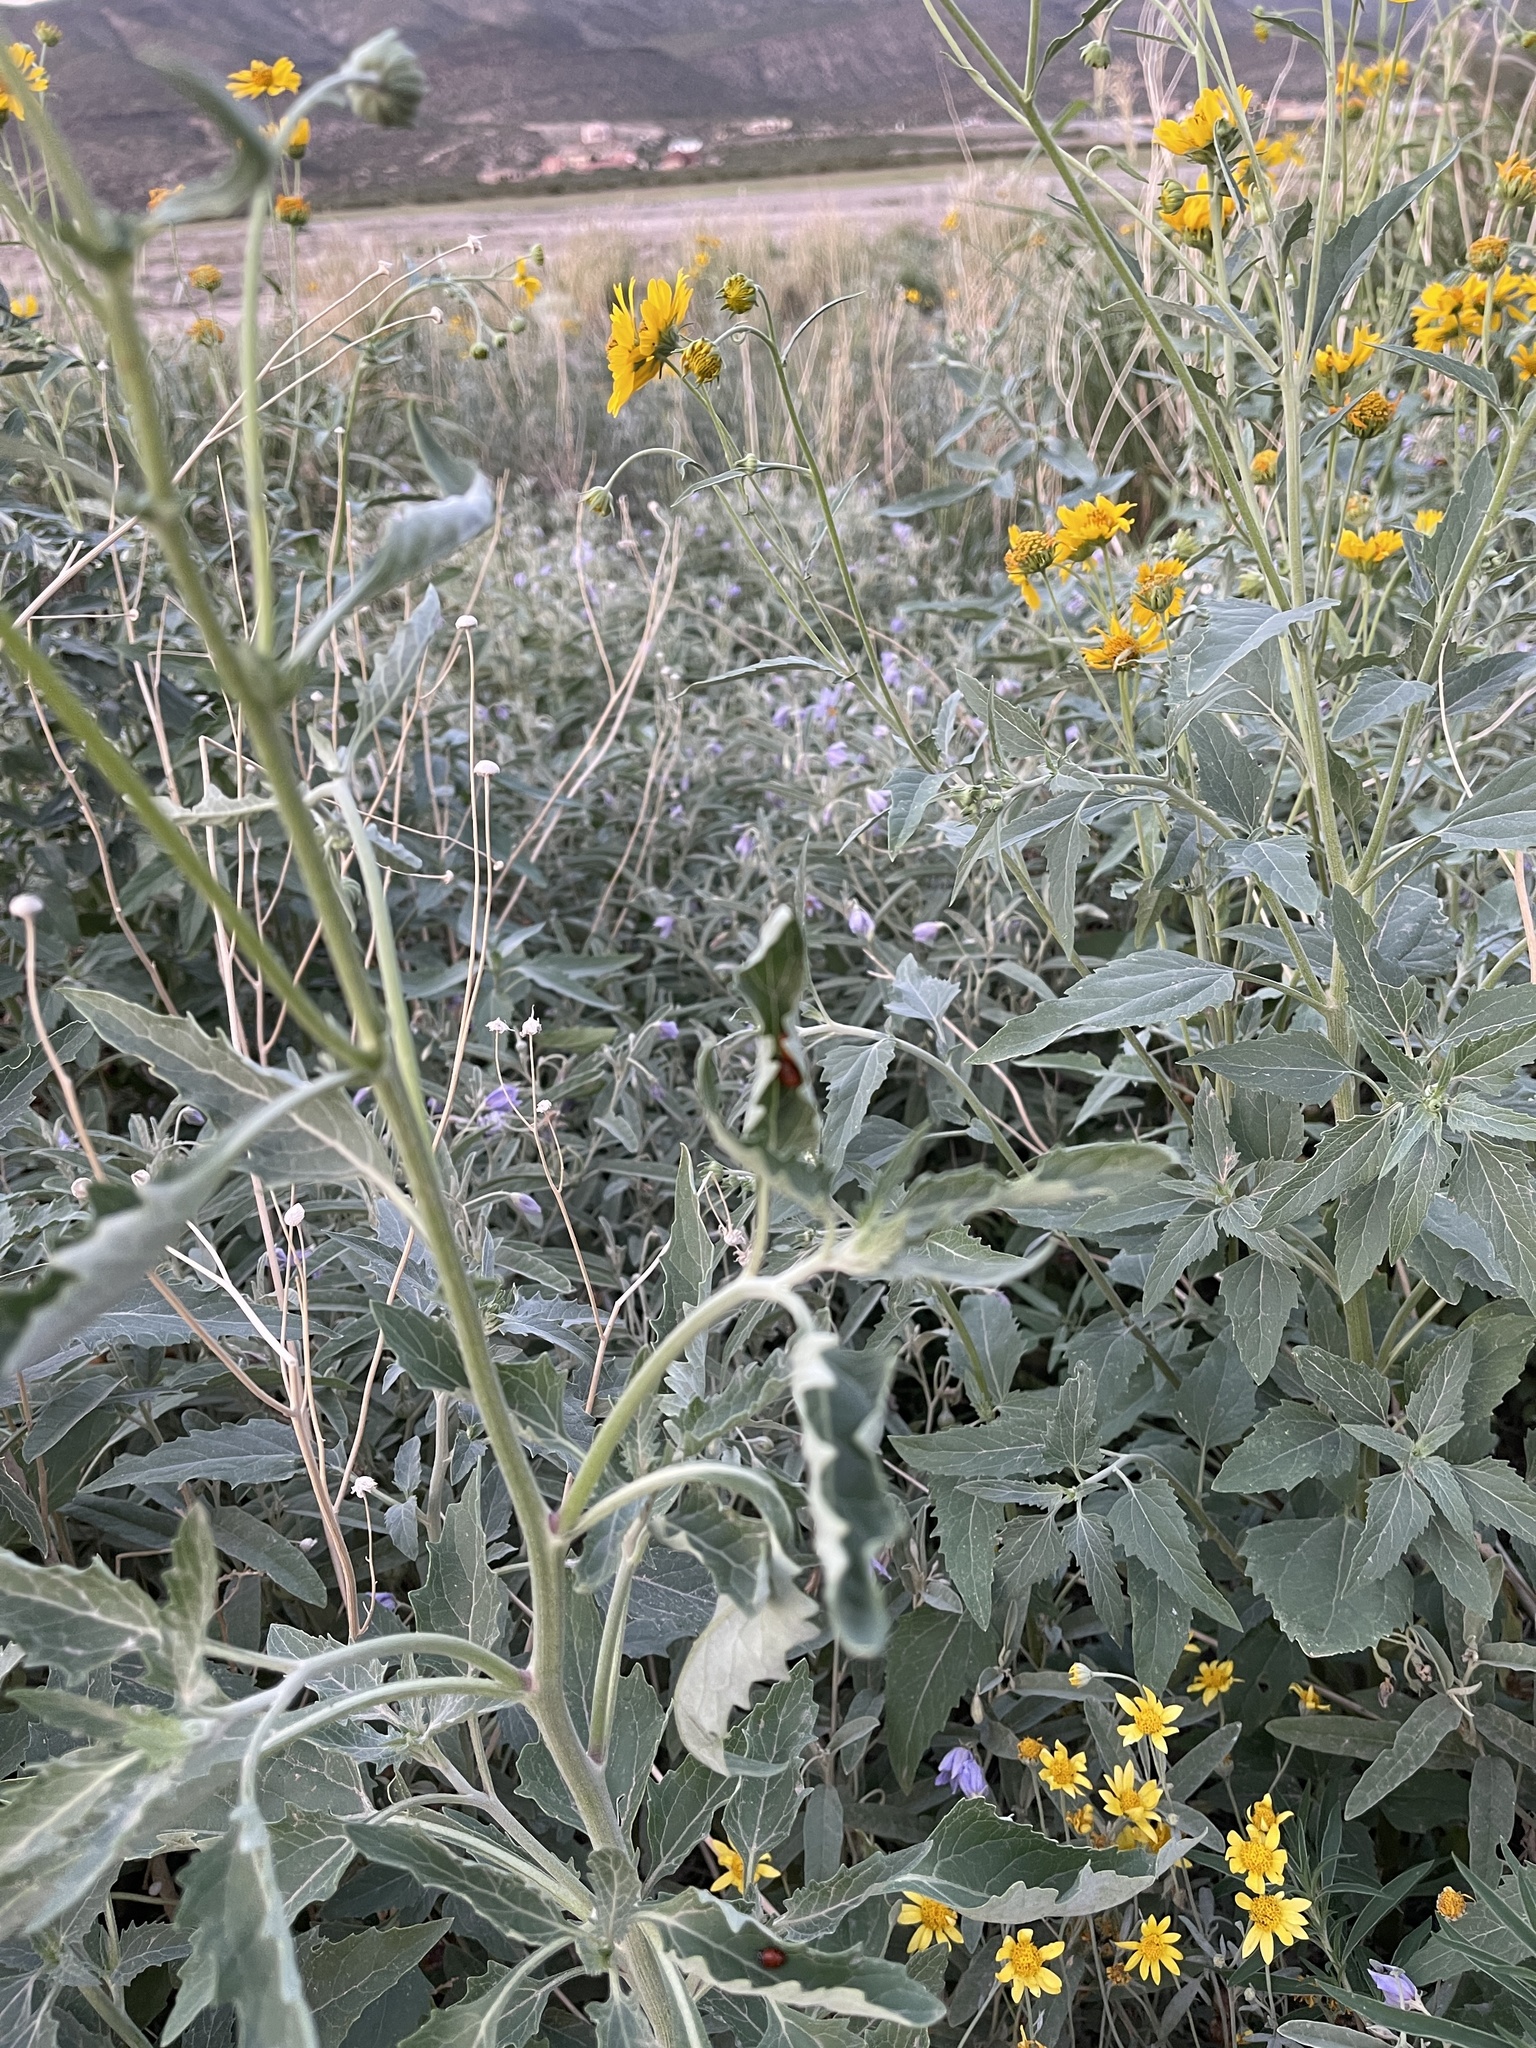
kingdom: Plantae
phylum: Tracheophyta
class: Magnoliopsida
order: Asterales
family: Asteraceae
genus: Verbesina
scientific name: Verbesina encelioides
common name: Golden crownbeard
